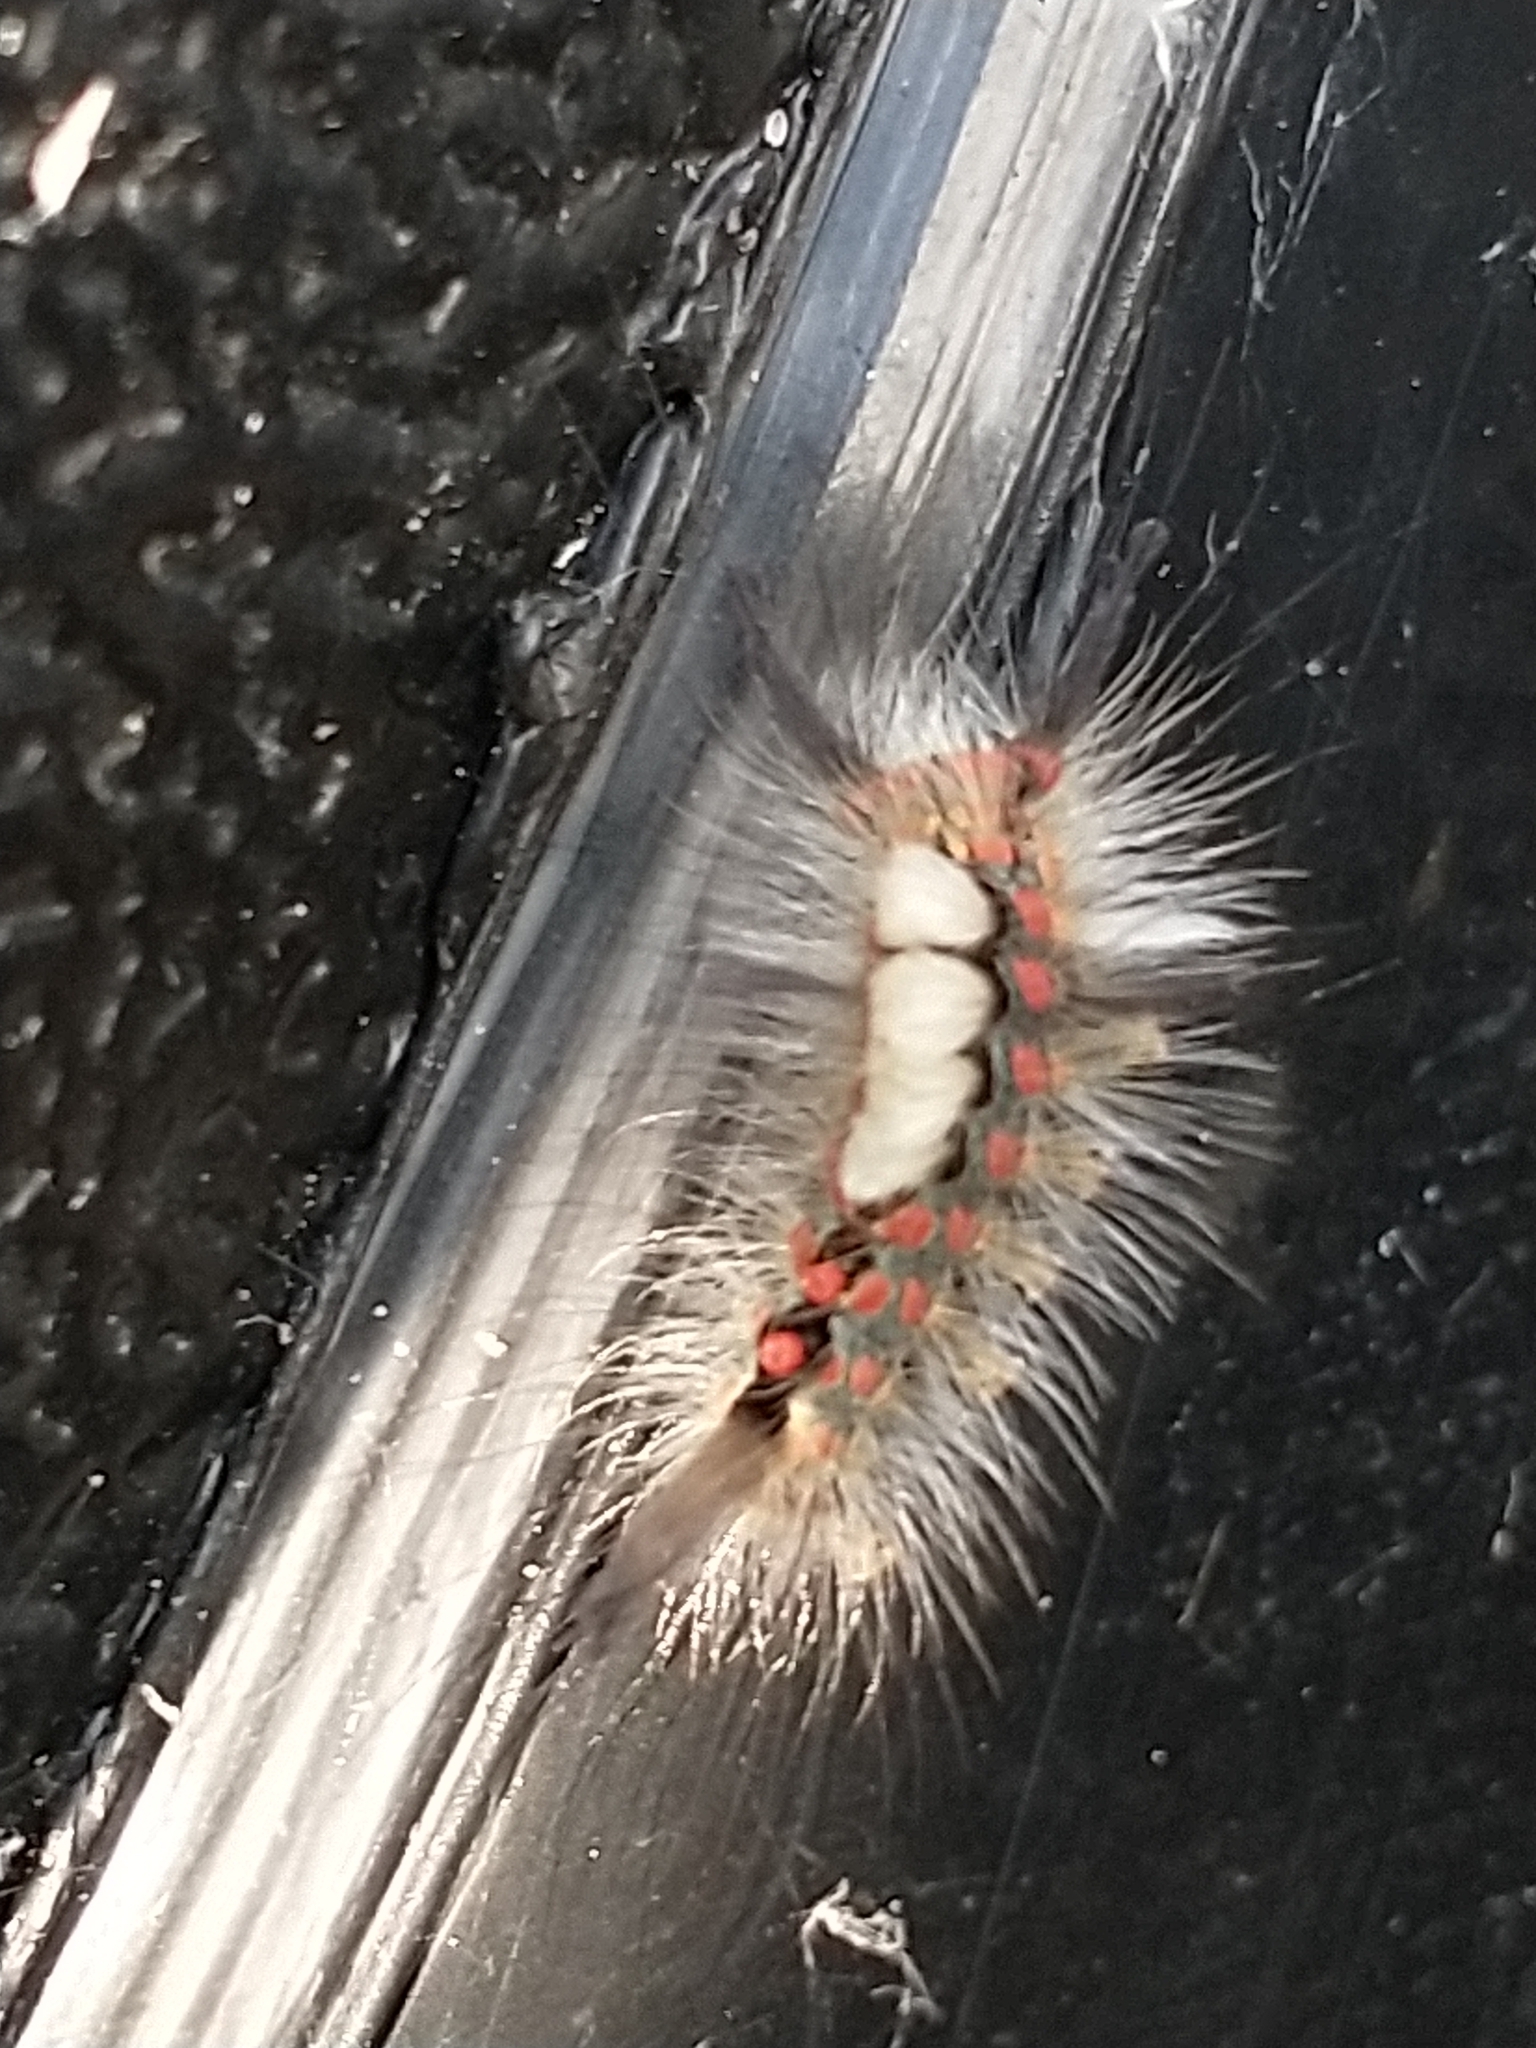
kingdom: Animalia
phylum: Arthropoda
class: Insecta
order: Lepidoptera
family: Erebidae
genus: Orgyia
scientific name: Orgyia antiqua
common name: Vapourer
